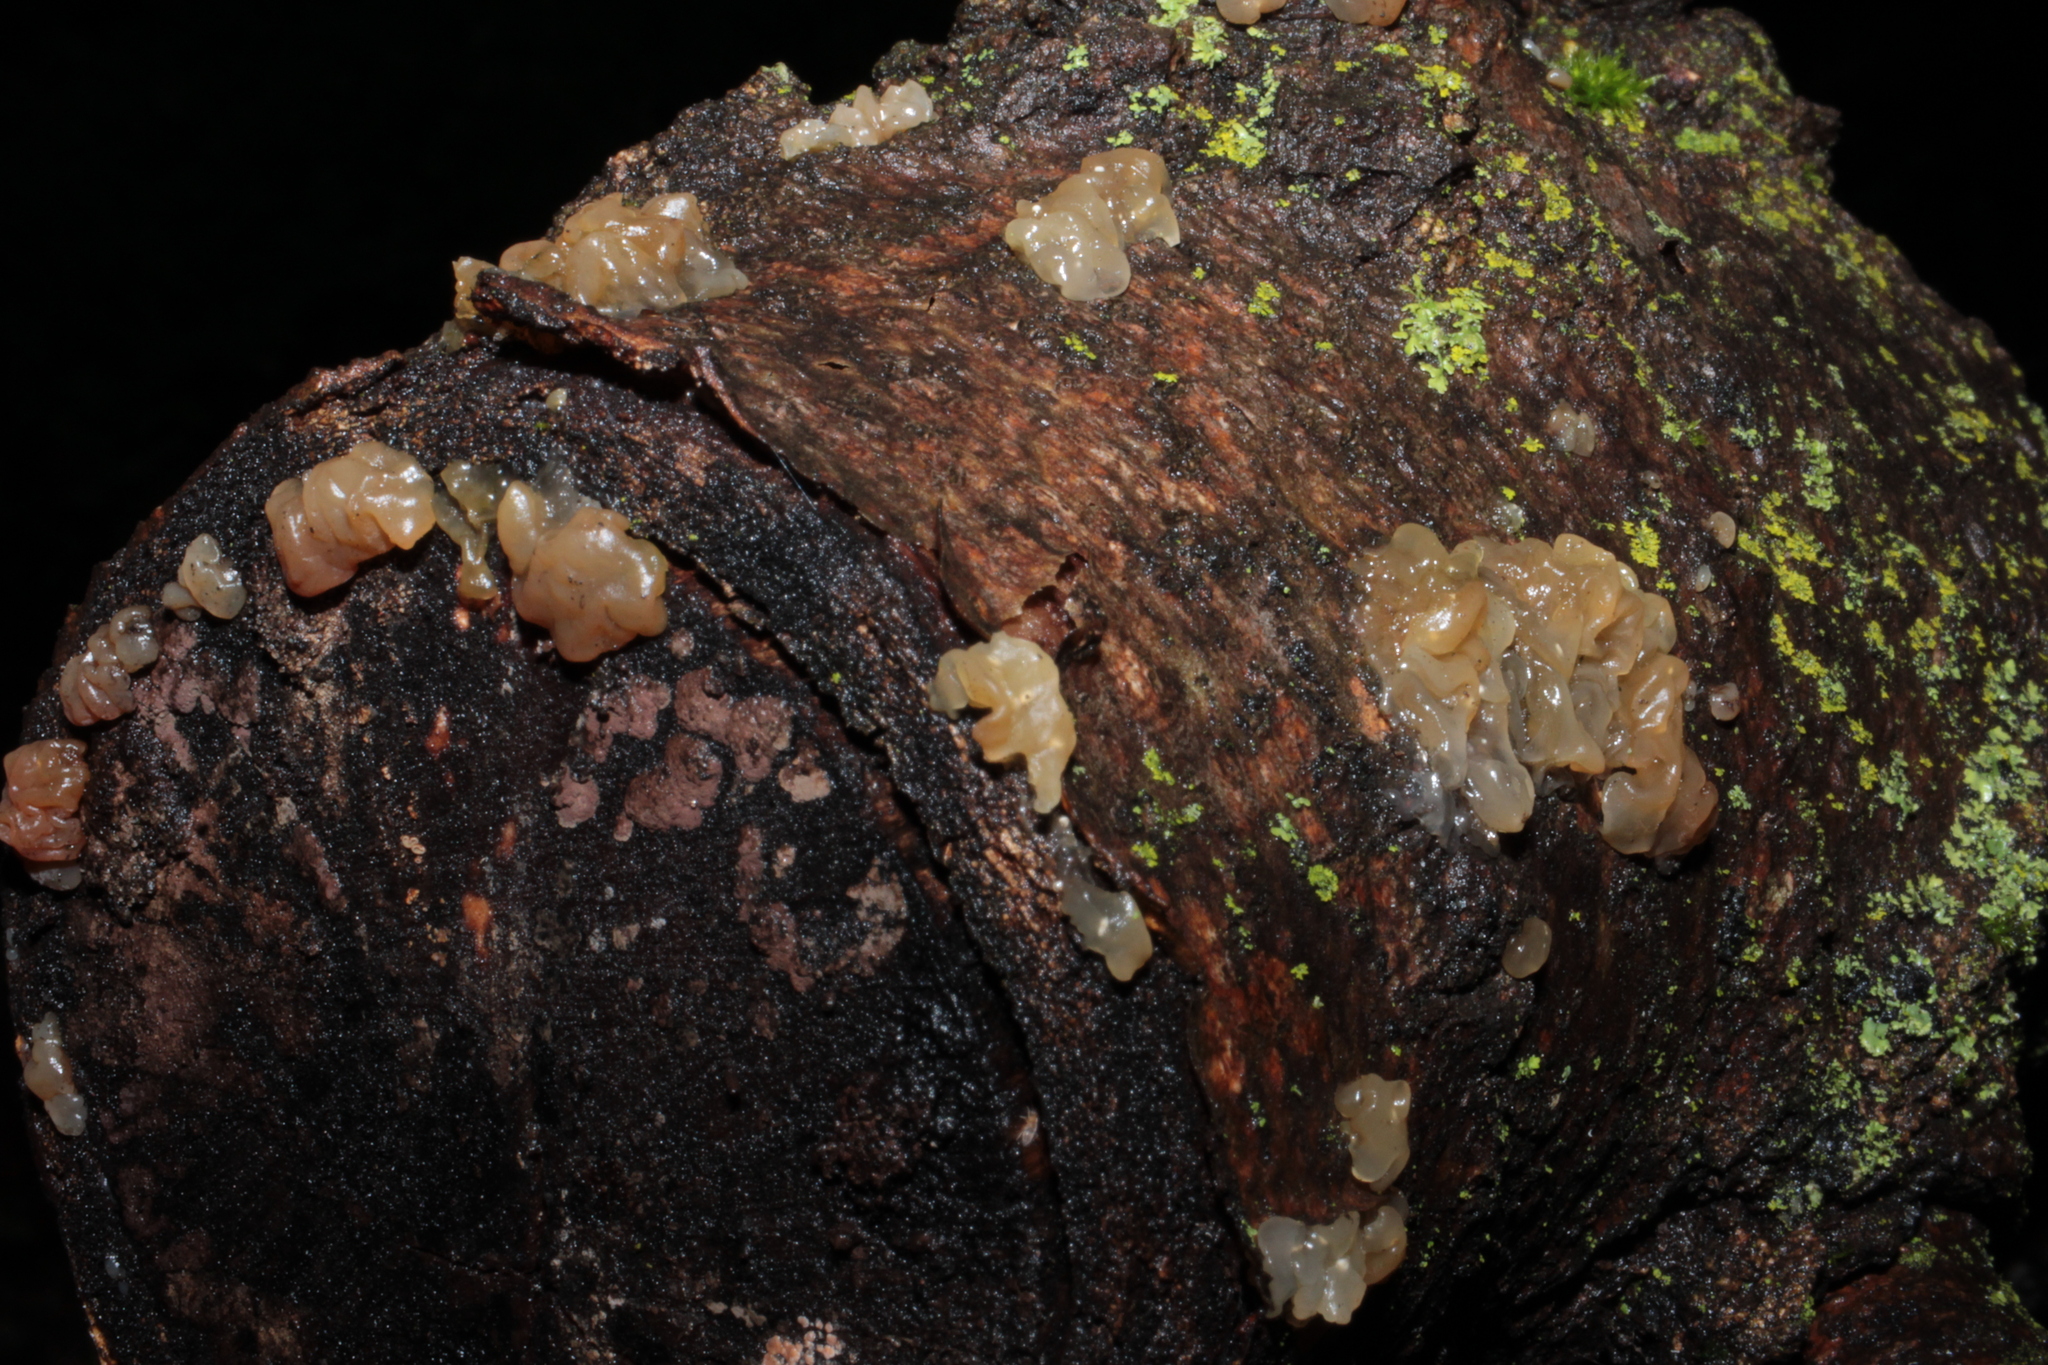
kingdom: Fungi
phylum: Basidiomycota
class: Agaricomycetes
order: Auriculariales
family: Hyaloriaceae
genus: Myxarium
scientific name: Myxarium nucleatum
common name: Crystal brain fungus
